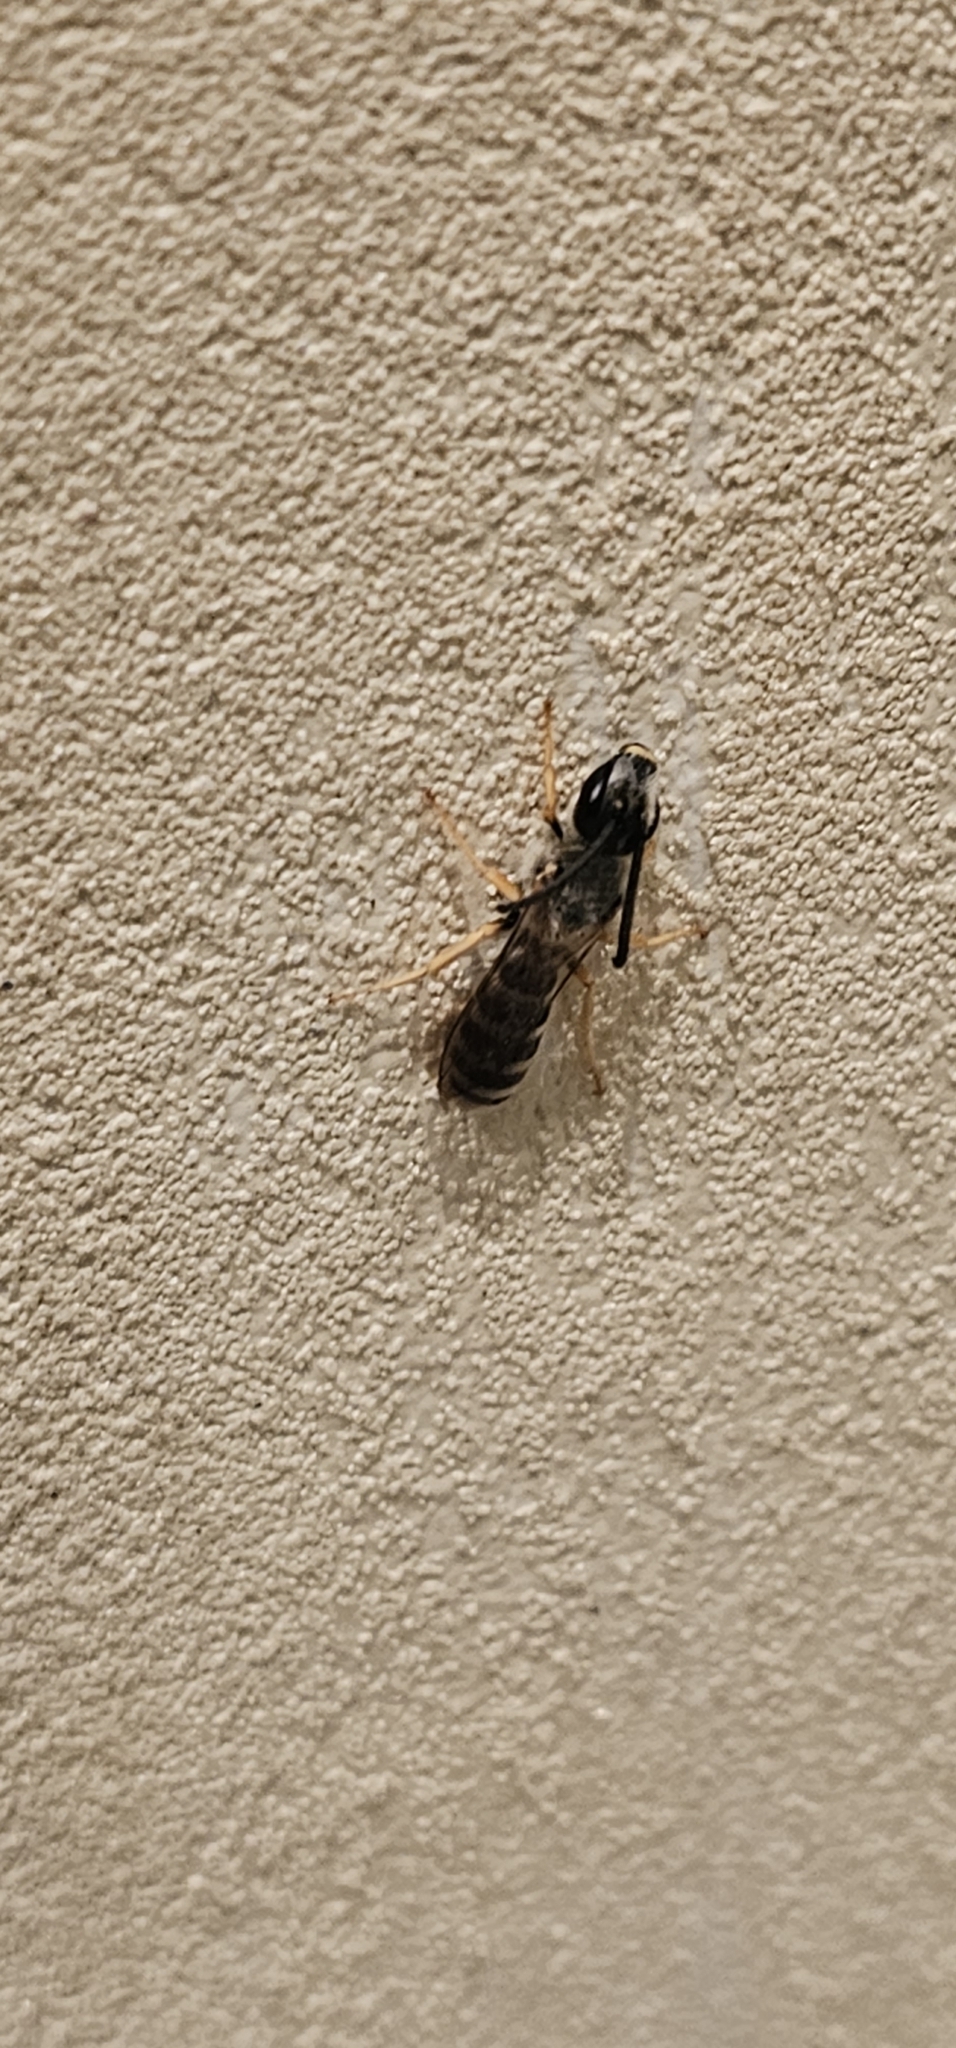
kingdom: Animalia
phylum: Arthropoda
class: Insecta
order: Hymenoptera
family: Halictidae
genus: Halictus
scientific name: Halictus scabiosae
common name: Great banded furrow bee
